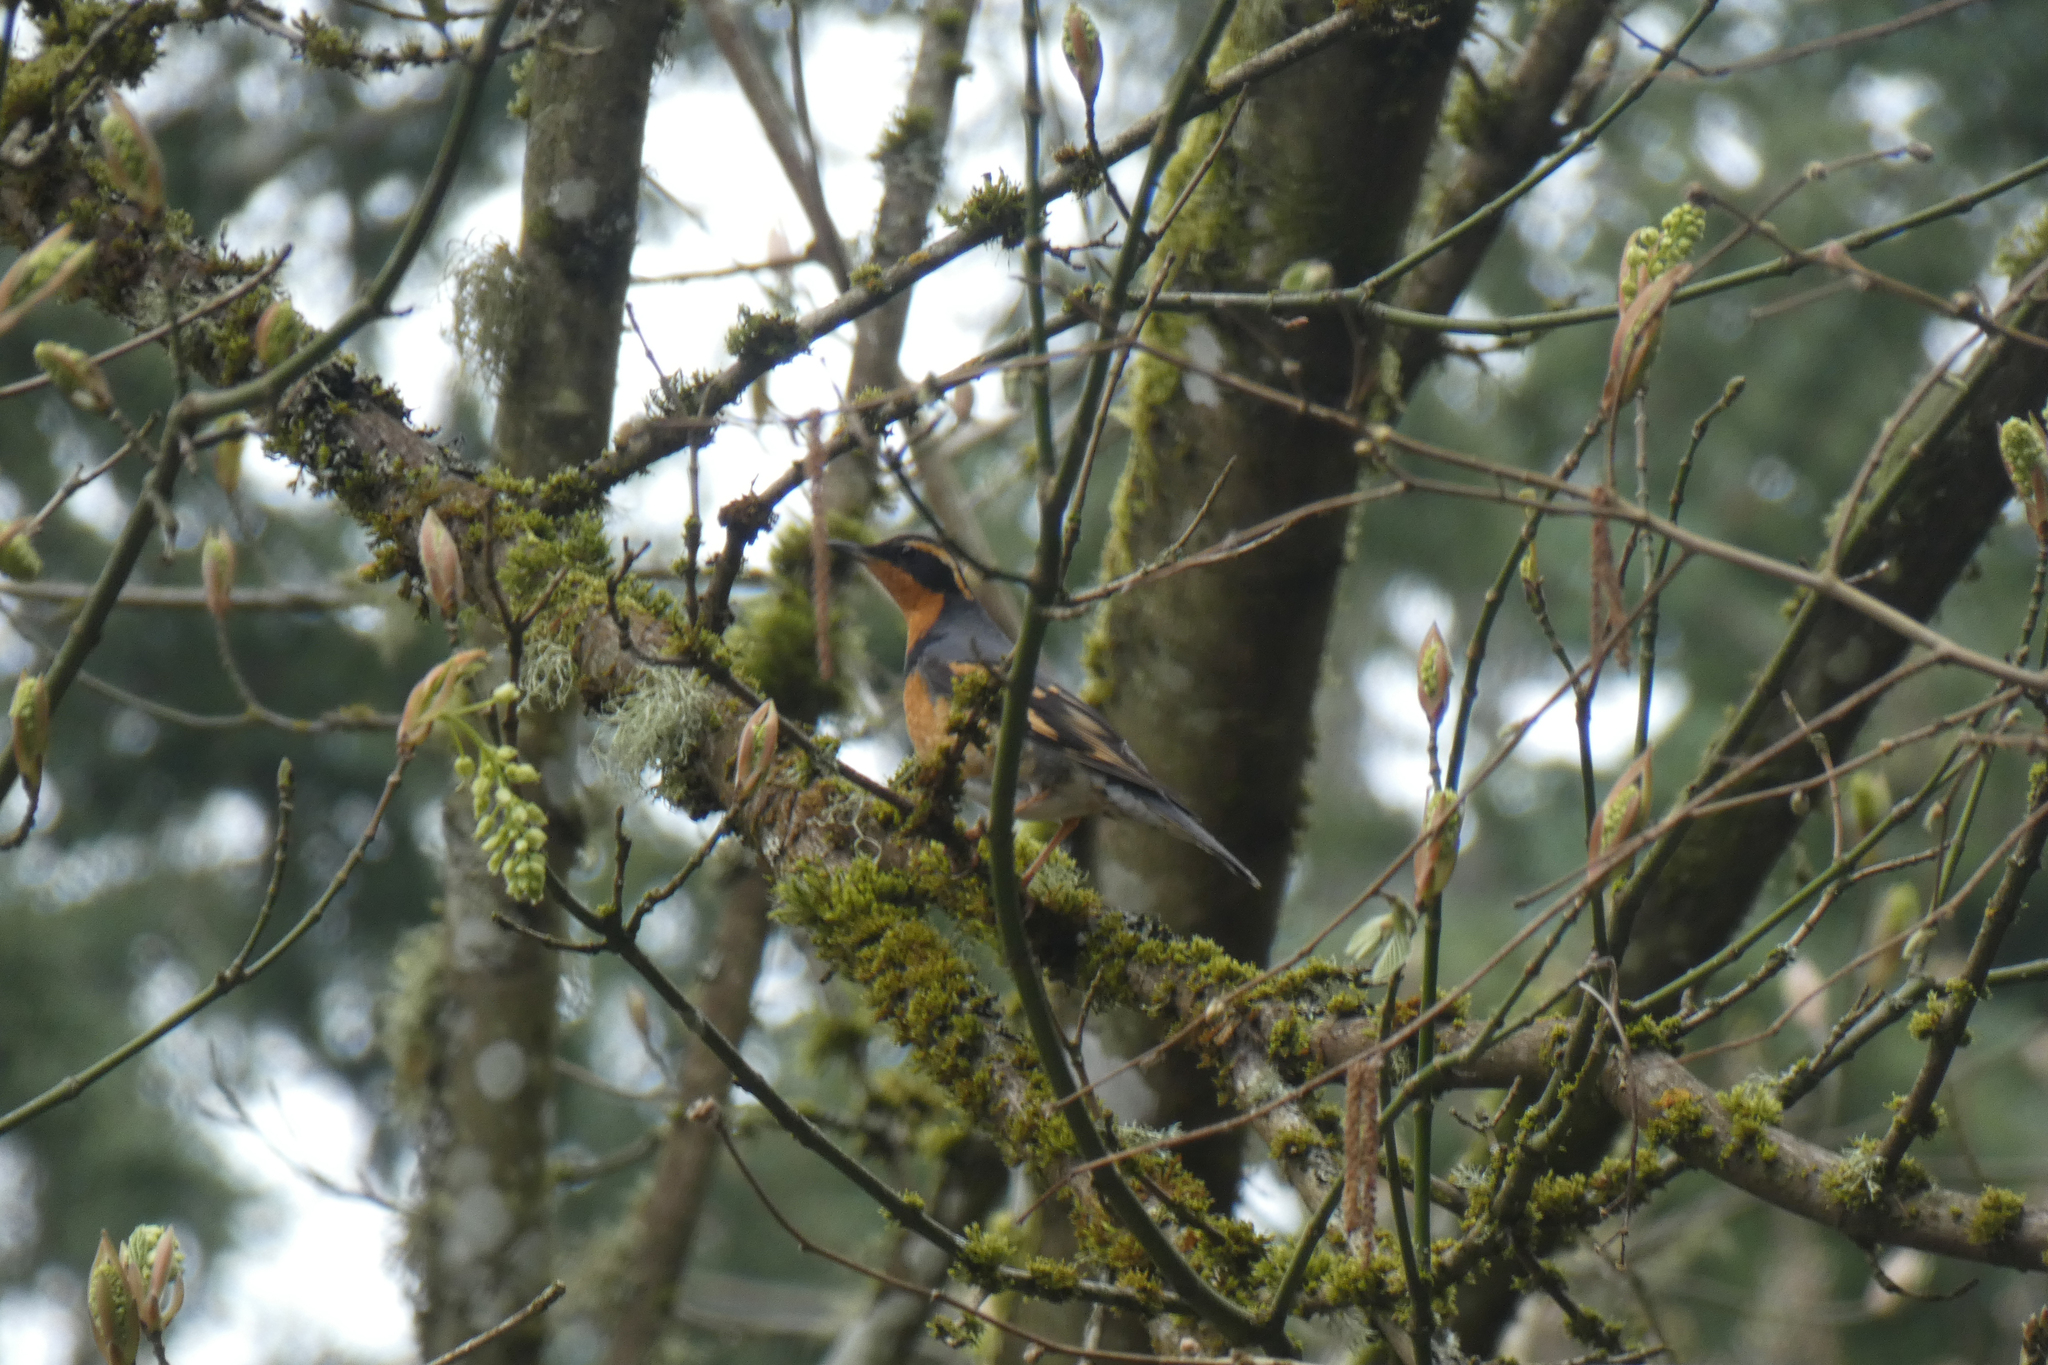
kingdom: Animalia
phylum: Chordata
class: Aves
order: Passeriformes
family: Turdidae
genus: Ixoreus
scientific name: Ixoreus naevius
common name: Varied thrush
